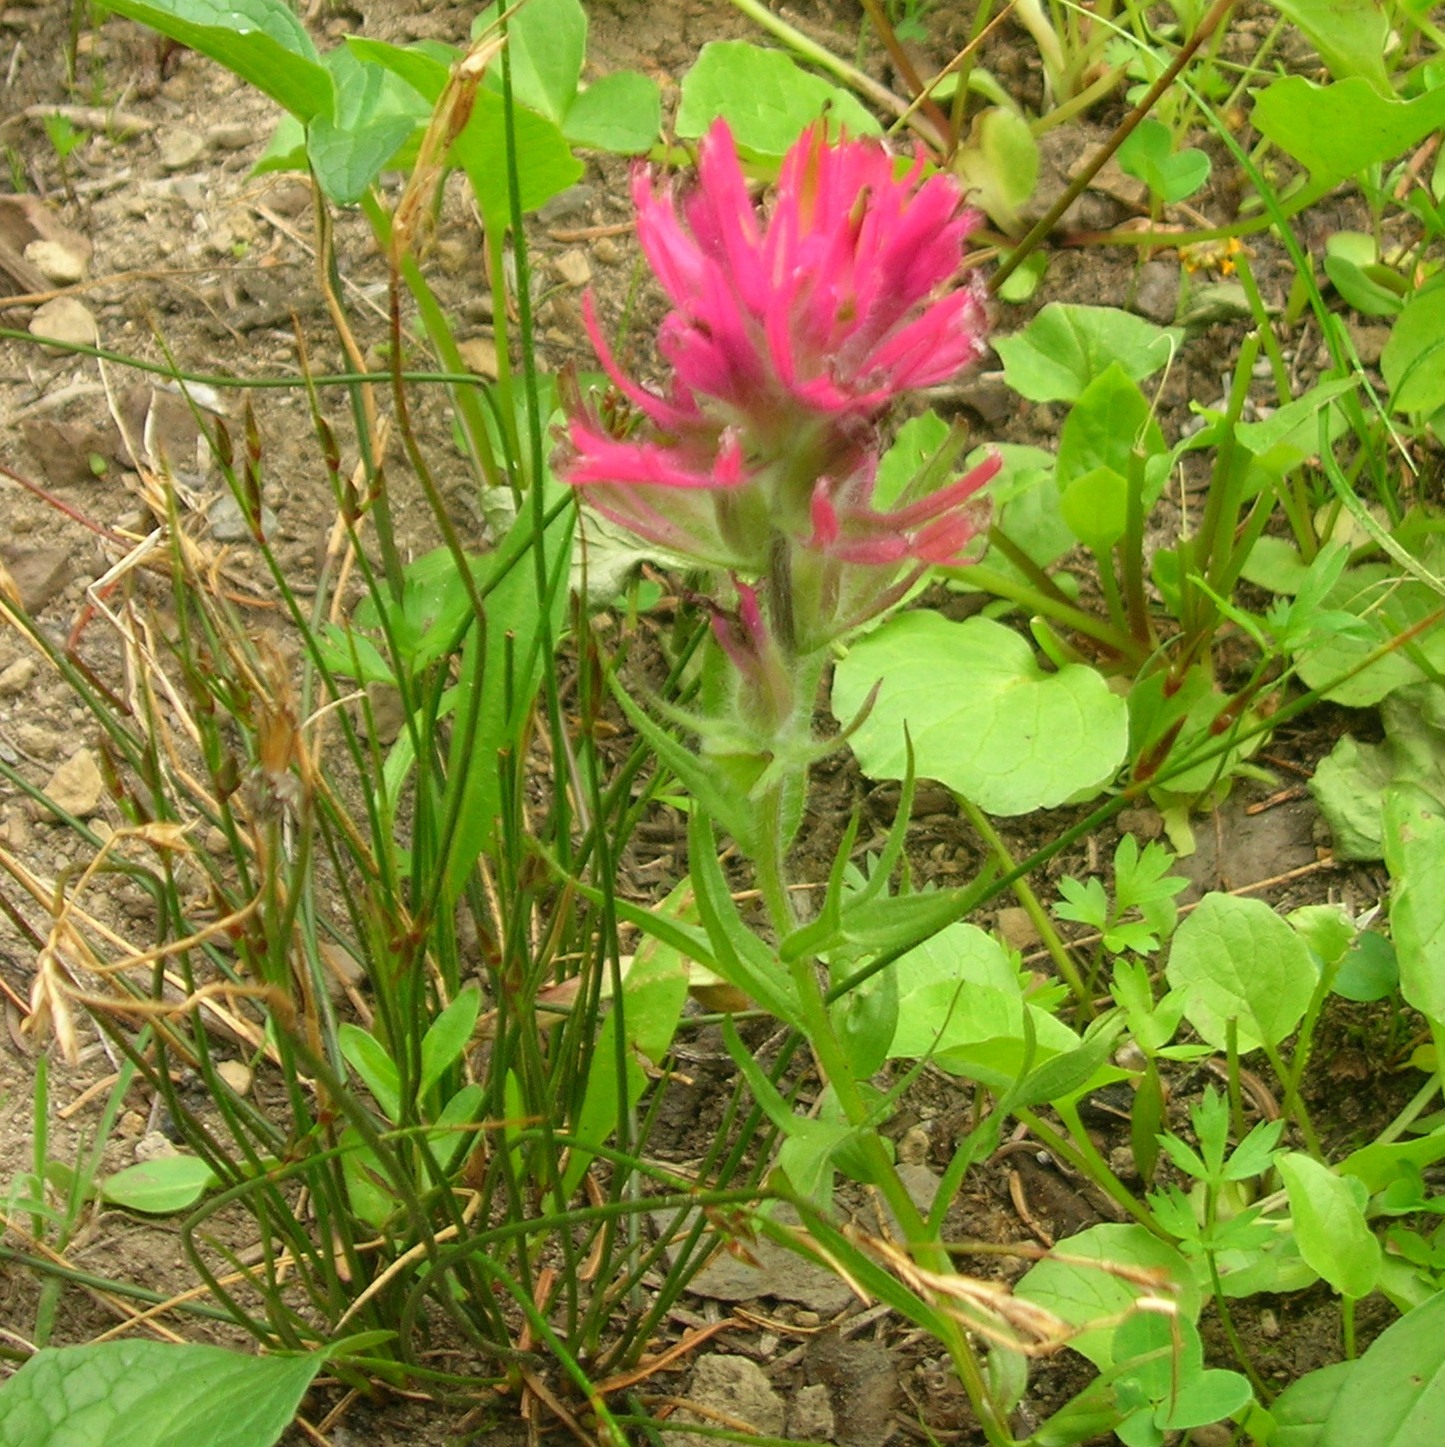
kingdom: Plantae
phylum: Tracheophyta
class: Magnoliopsida
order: Lamiales
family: Orobanchaceae
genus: Castilleja
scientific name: Castilleja parviflora
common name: Mountain paintbrush
